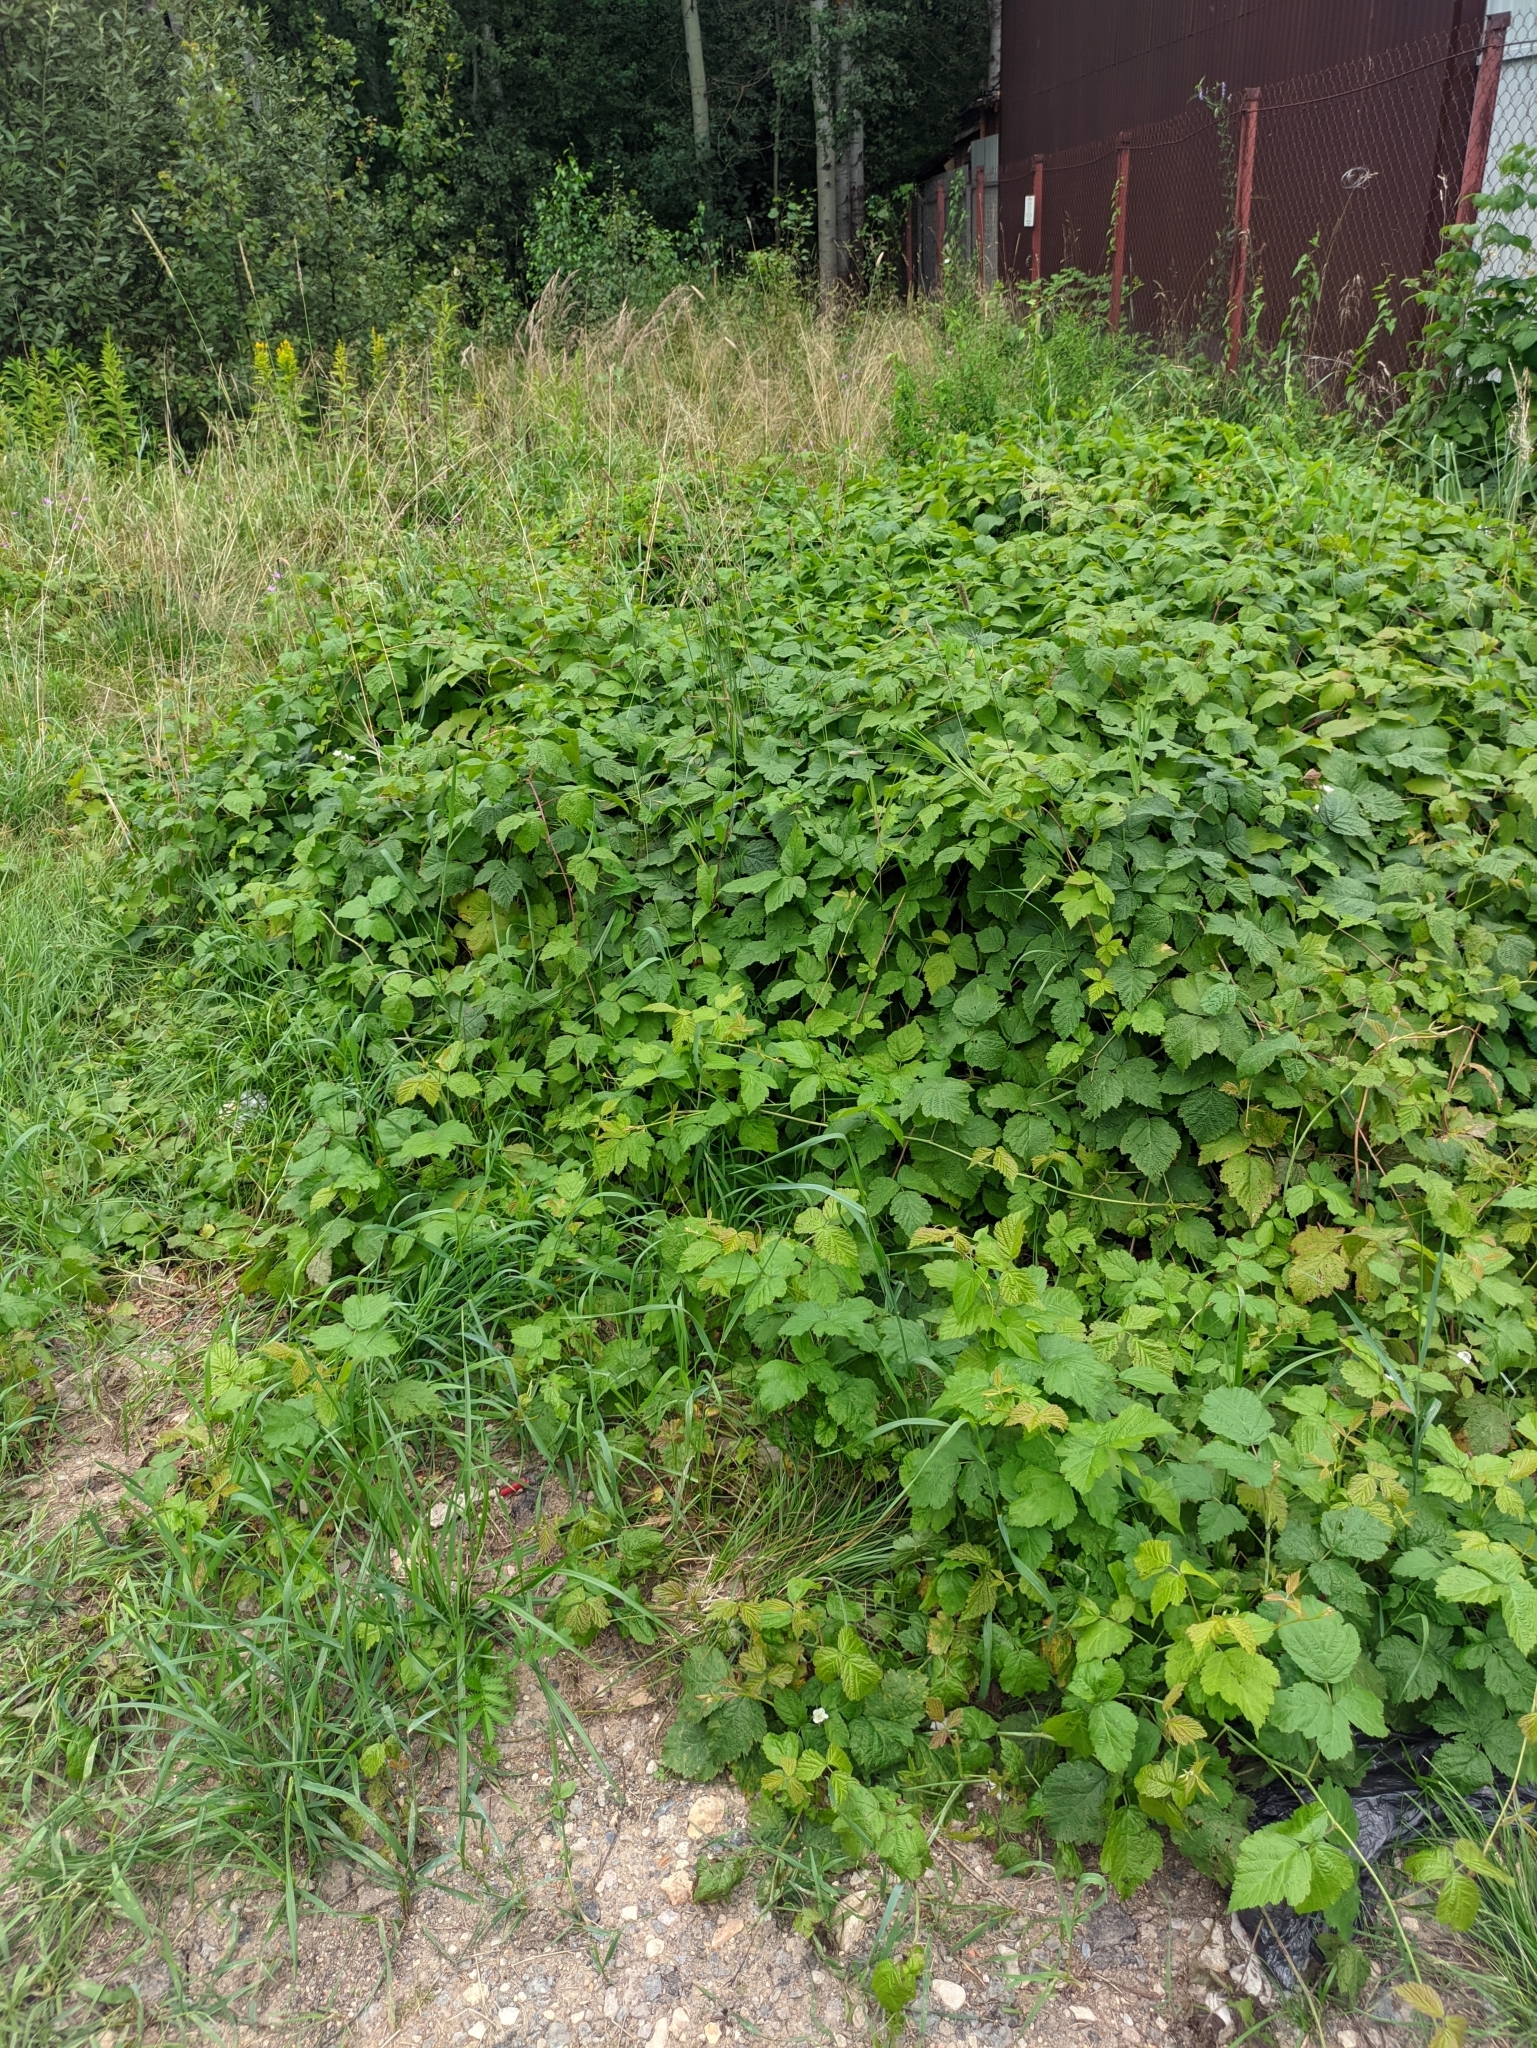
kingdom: Plantae
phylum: Tracheophyta
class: Magnoliopsida
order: Rosales
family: Rosaceae
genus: Rubus
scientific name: Rubus caesius
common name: Dewberry
